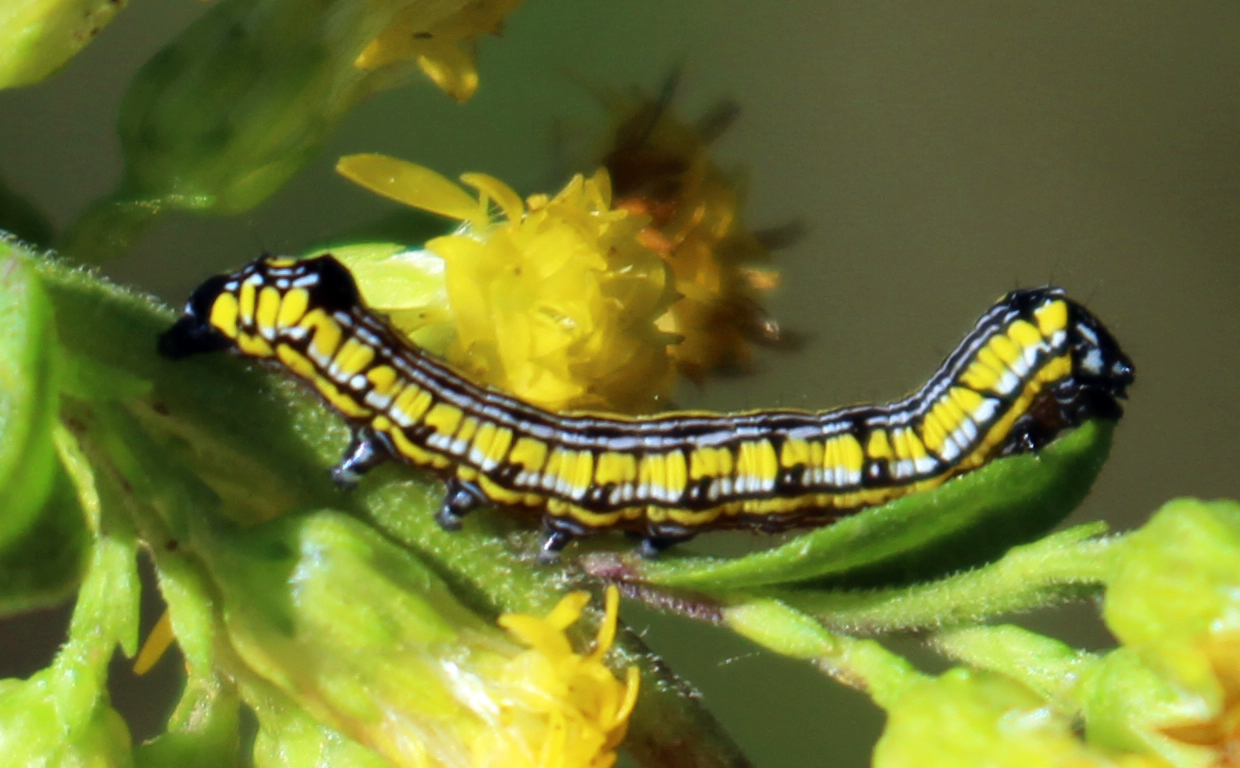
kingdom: Animalia
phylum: Arthropoda
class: Insecta
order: Lepidoptera
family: Noctuidae
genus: Cucullia
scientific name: Cucullia convexipennis
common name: Brown-hooded owlet
